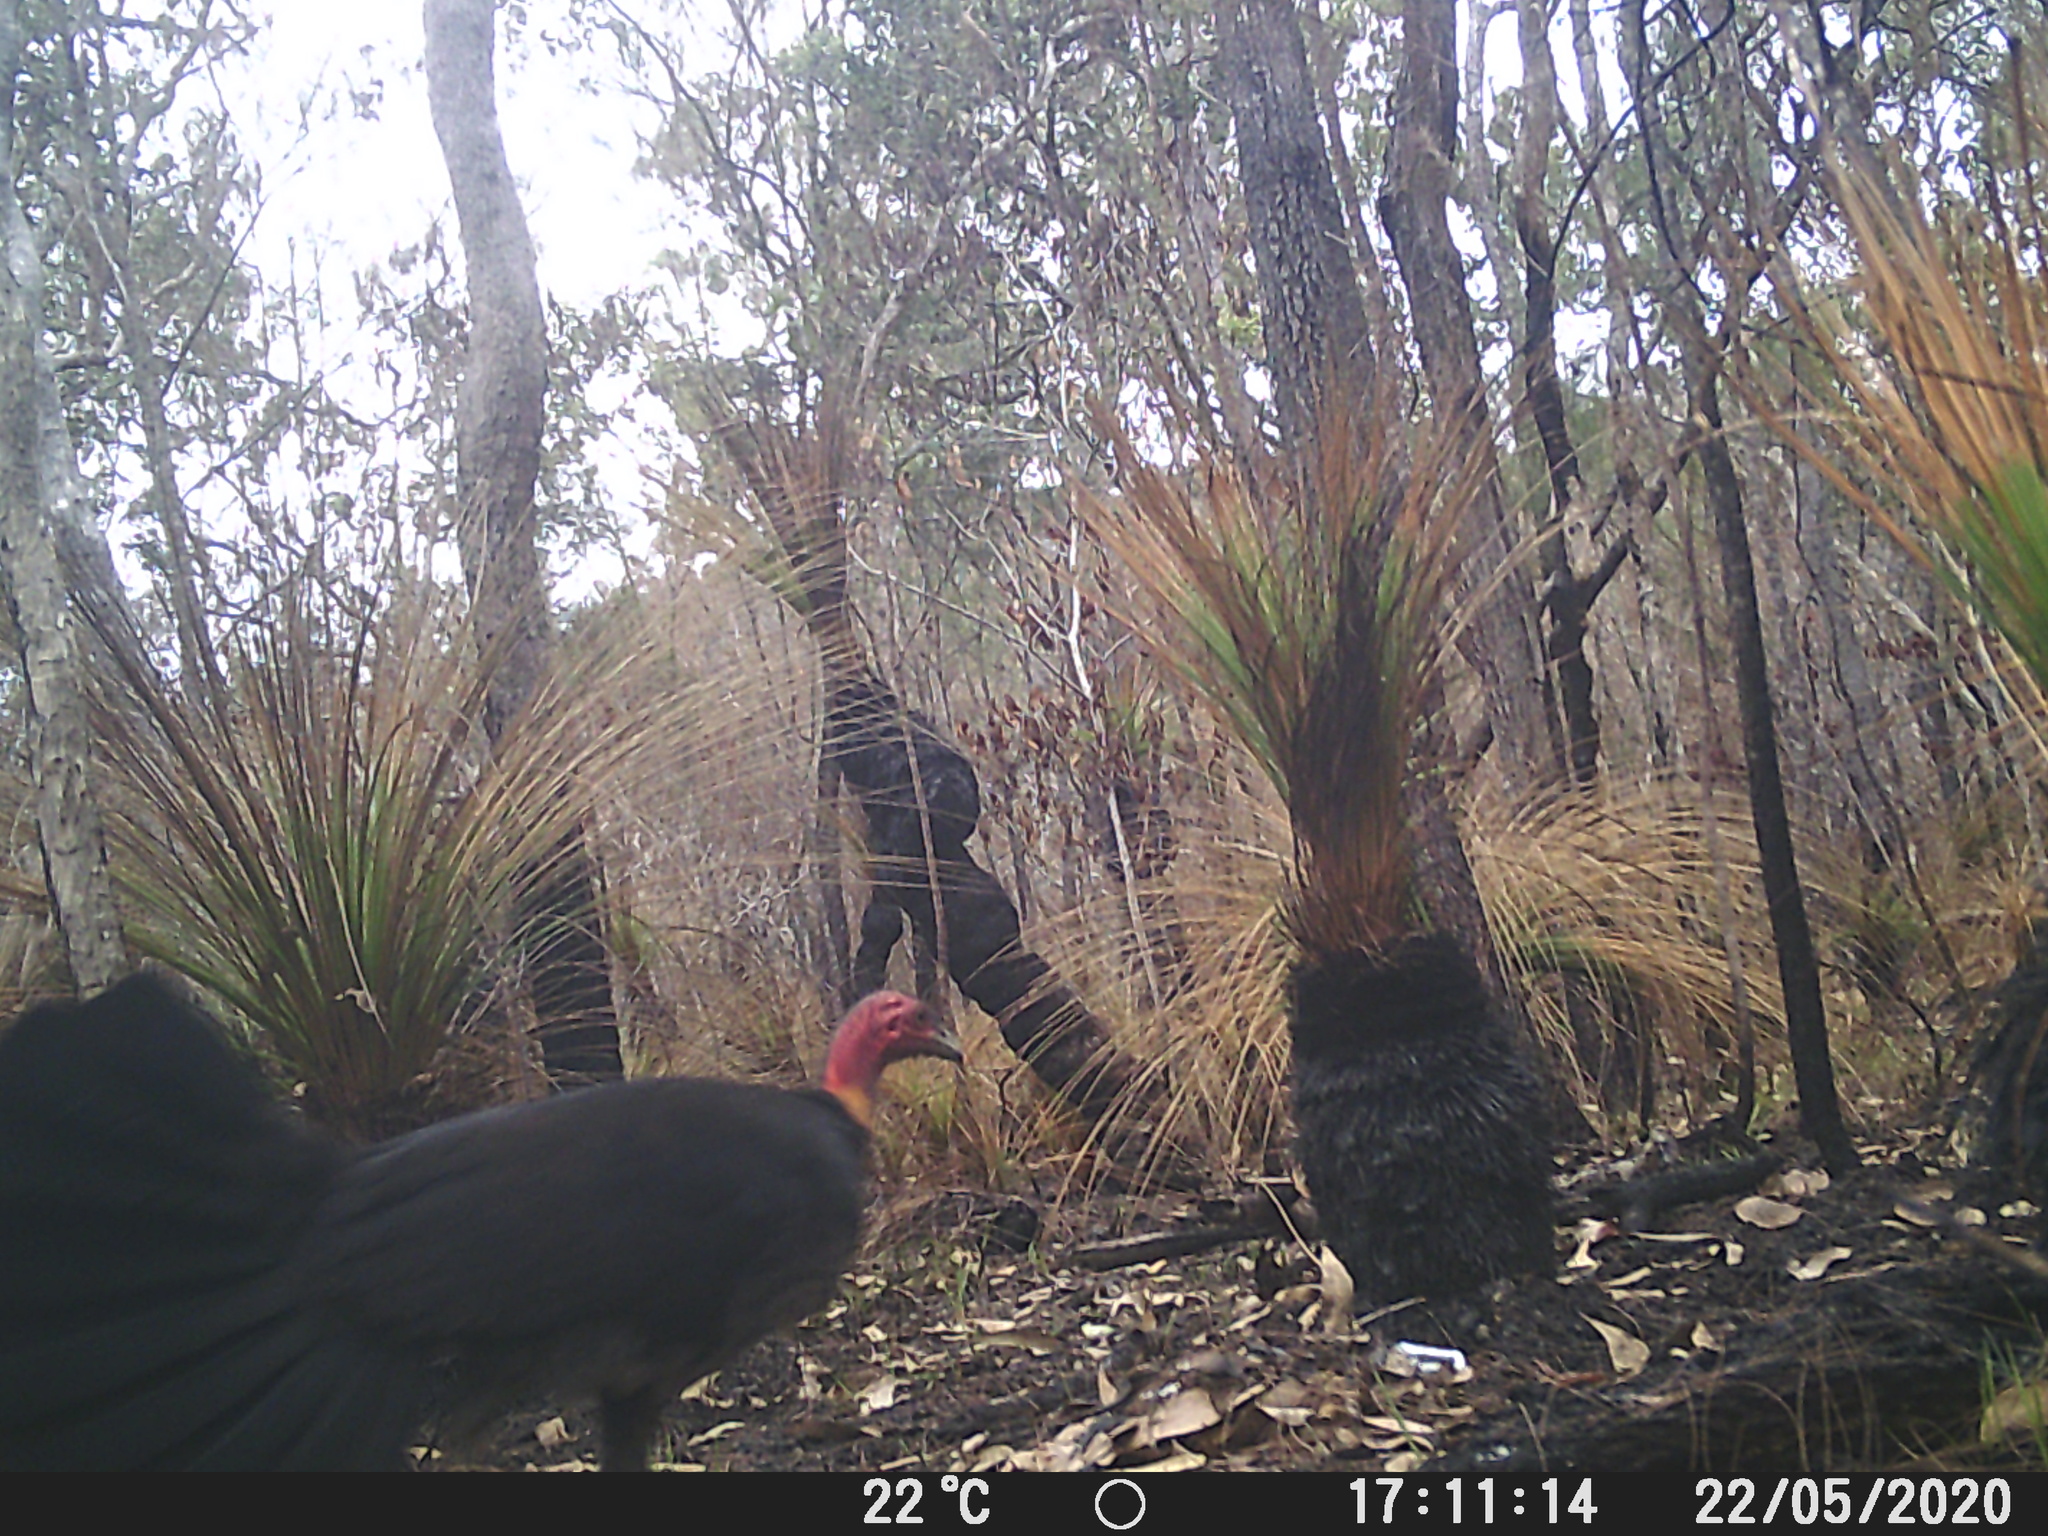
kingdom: Animalia
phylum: Chordata
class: Aves
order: Galliformes
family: Megapodiidae
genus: Alectura
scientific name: Alectura lathami
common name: Australian brushturkey
